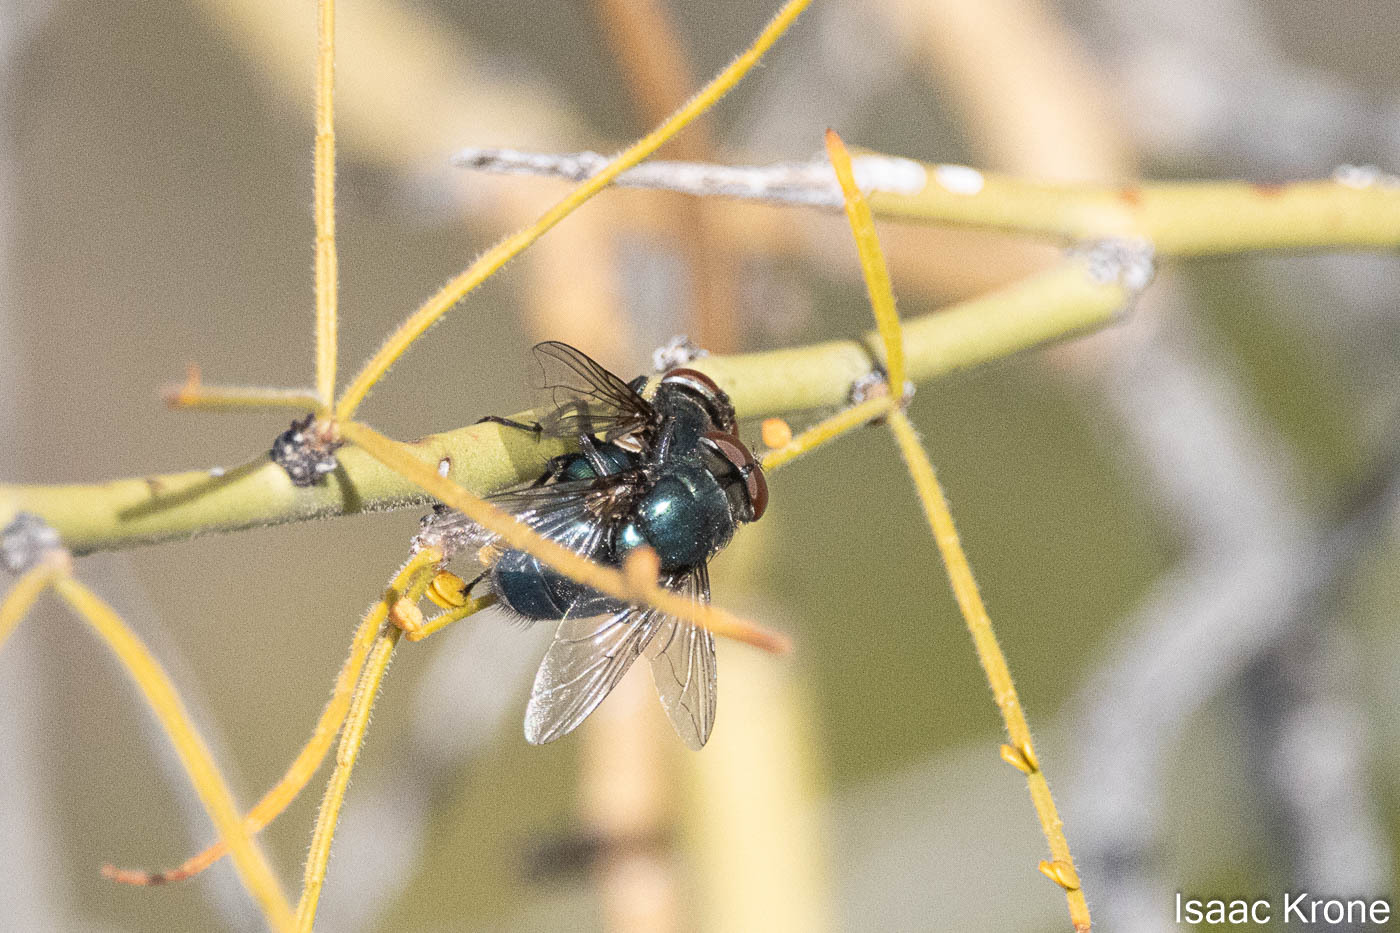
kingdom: Animalia
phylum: Arthropoda
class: Insecta
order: Diptera
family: Calliphoridae
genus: Phormia
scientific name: Phormia regina
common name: Black blow fly
